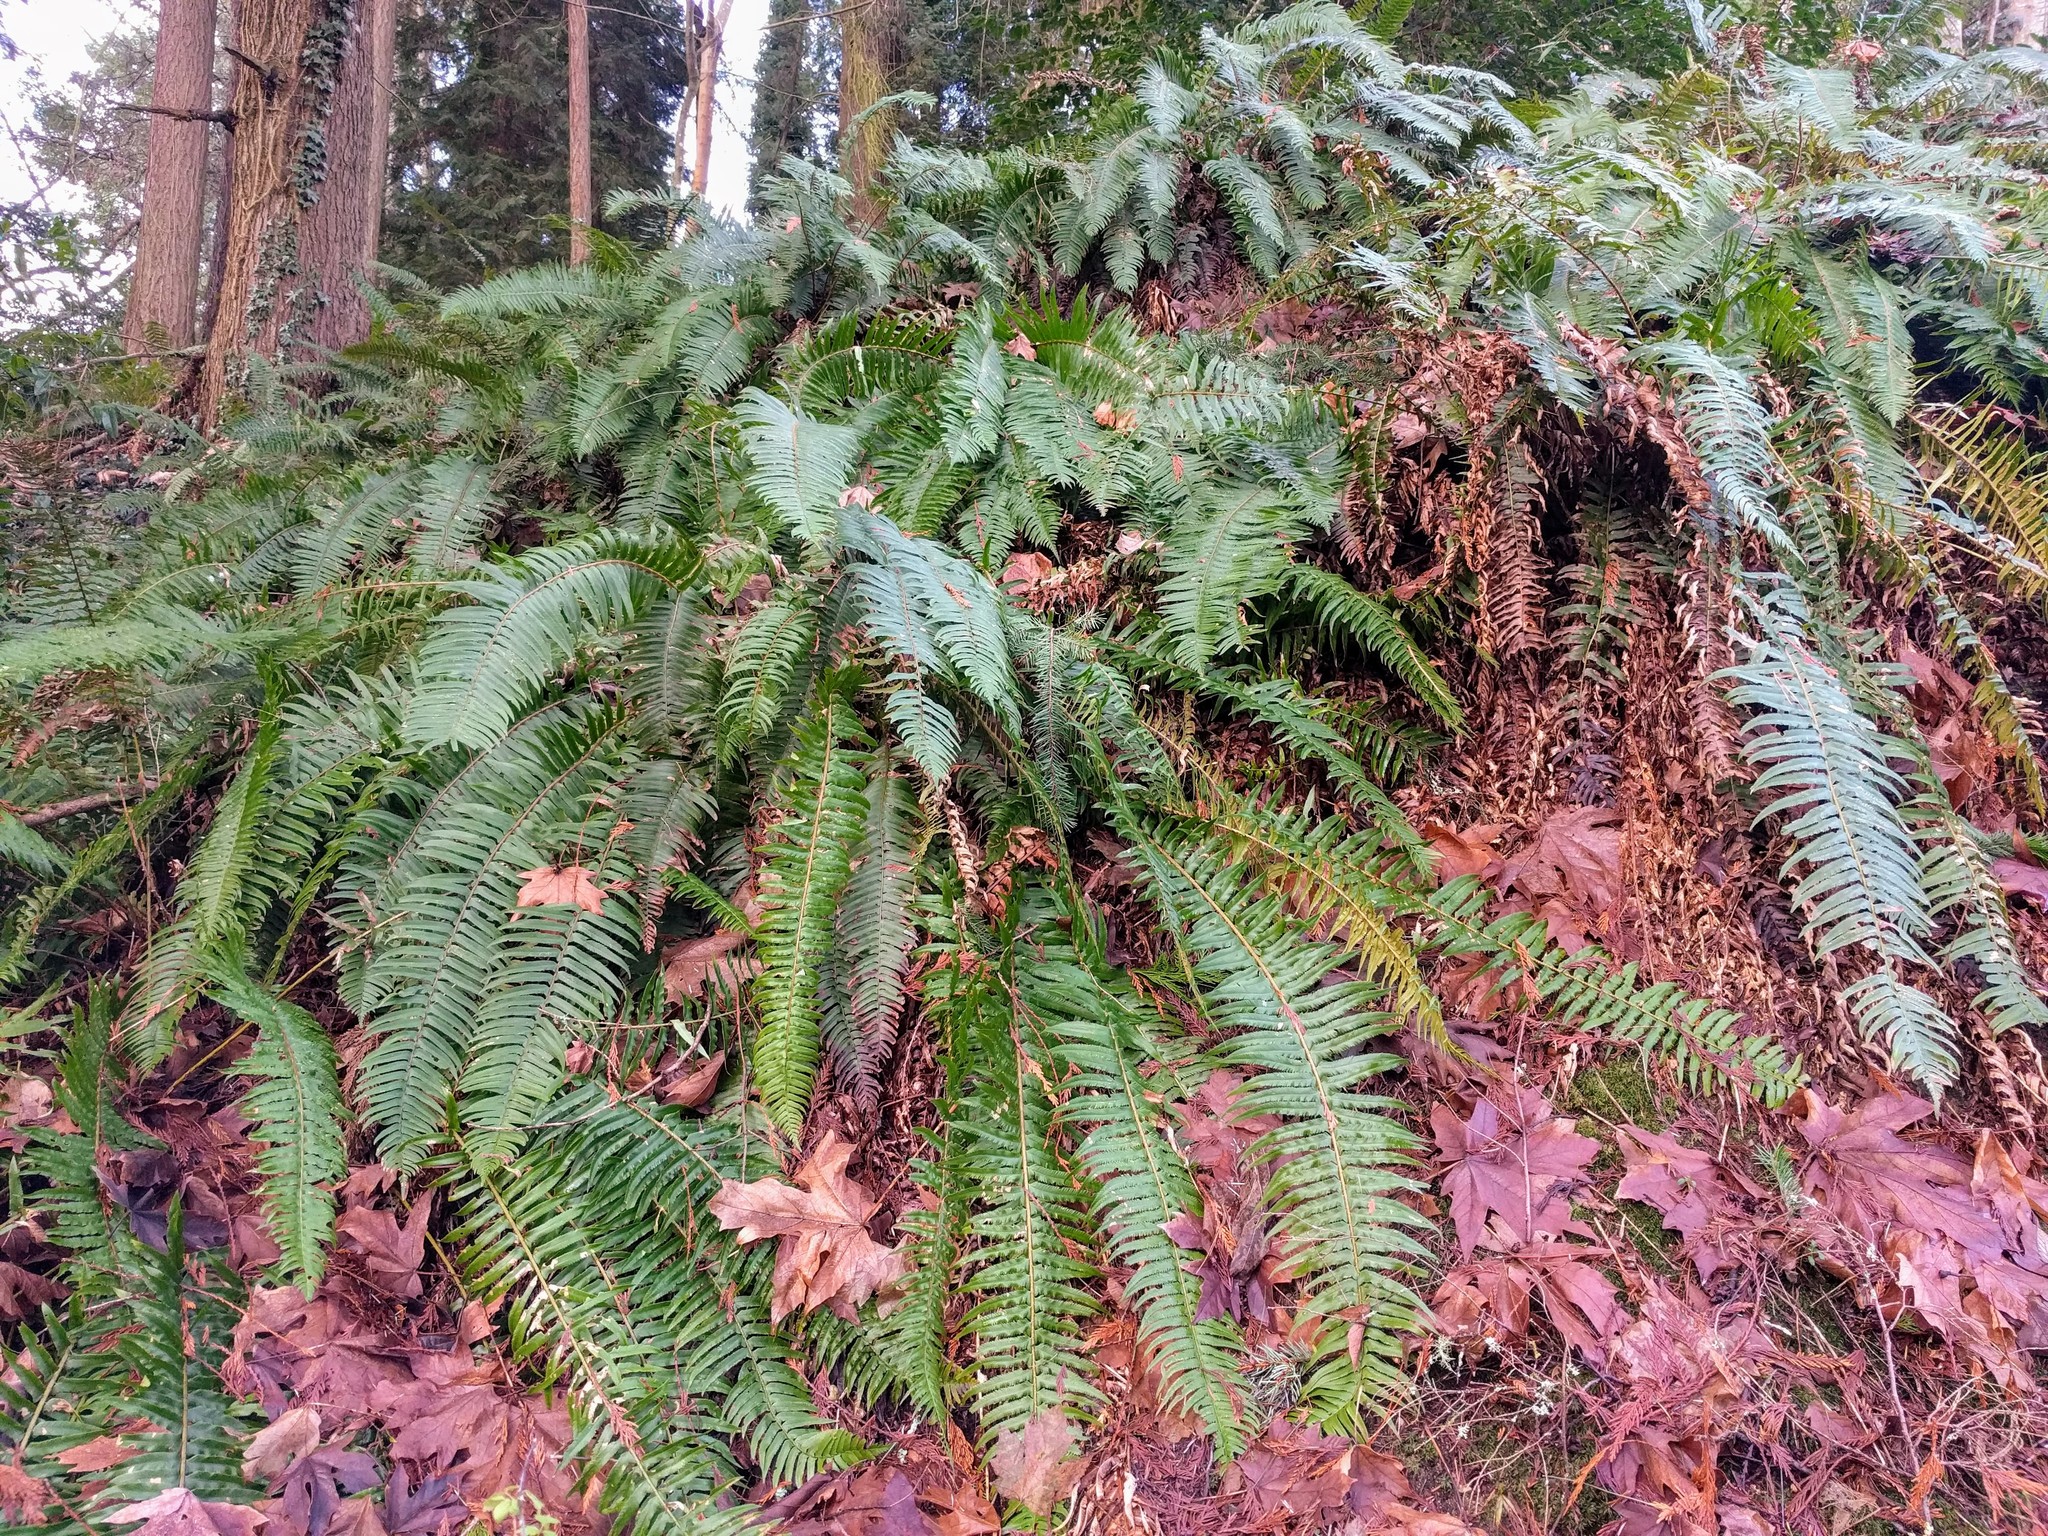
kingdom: Plantae
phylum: Tracheophyta
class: Polypodiopsida
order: Polypodiales
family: Dryopteridaceae
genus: Polystichum
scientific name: Polystichum munitum
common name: Western sword-fern
